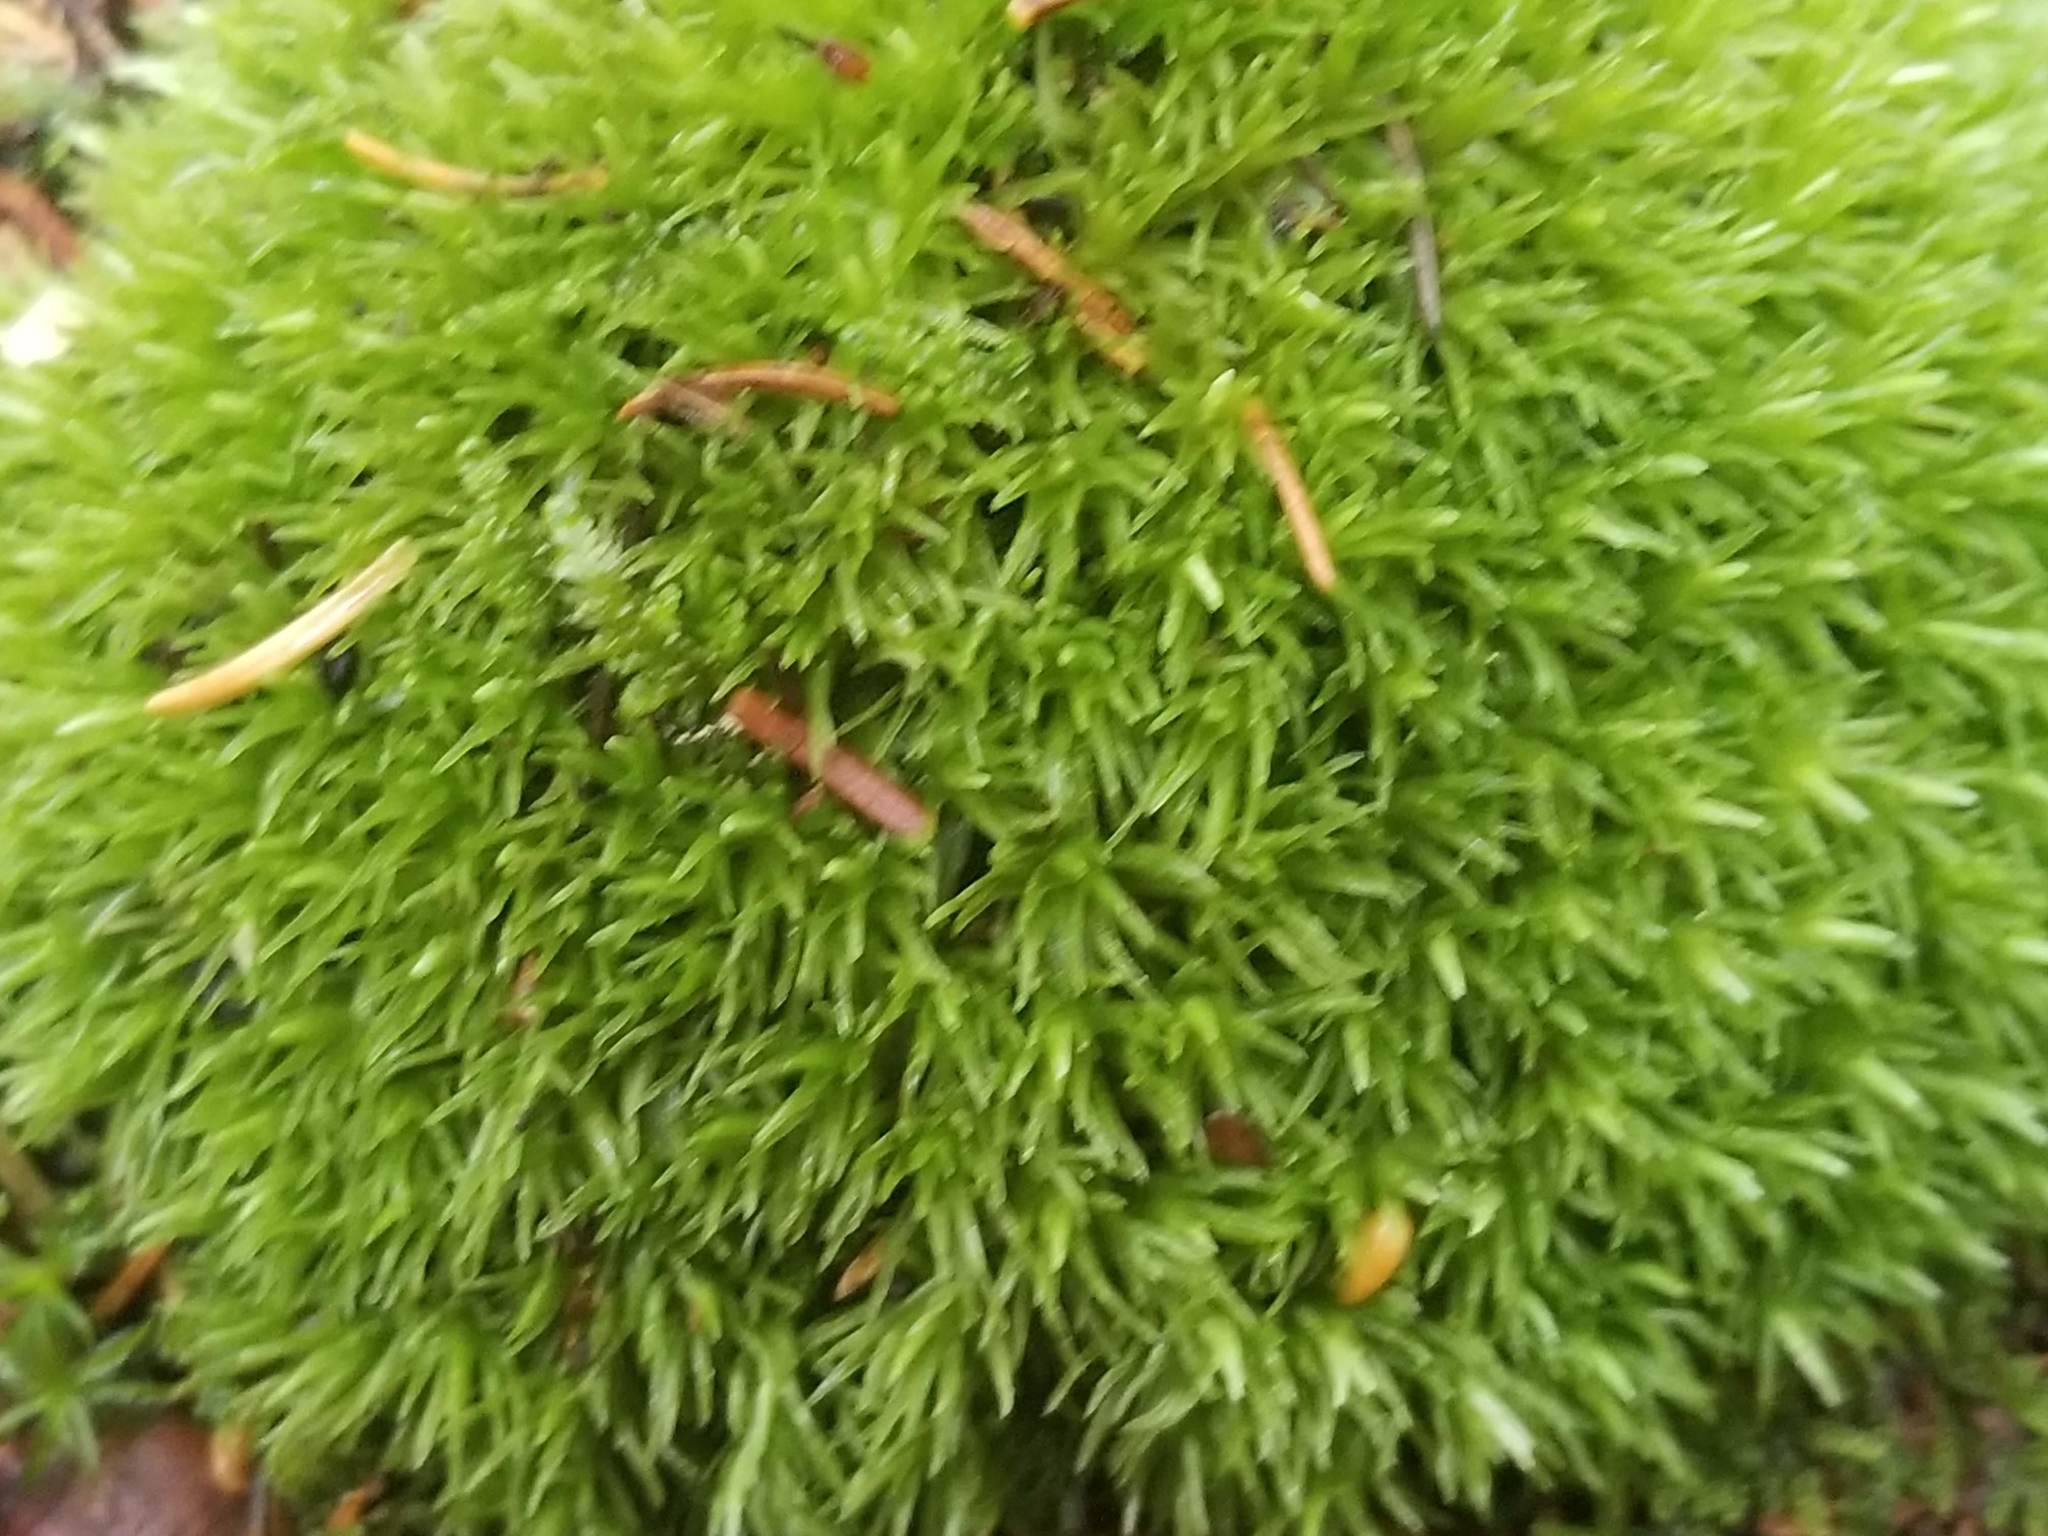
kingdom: Plantae
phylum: Bryophyta
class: Bryopsida
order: Dicranales
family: Leucobryaceae
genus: Leucobryum
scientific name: Leucobryum glaucum
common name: Large white-moss
